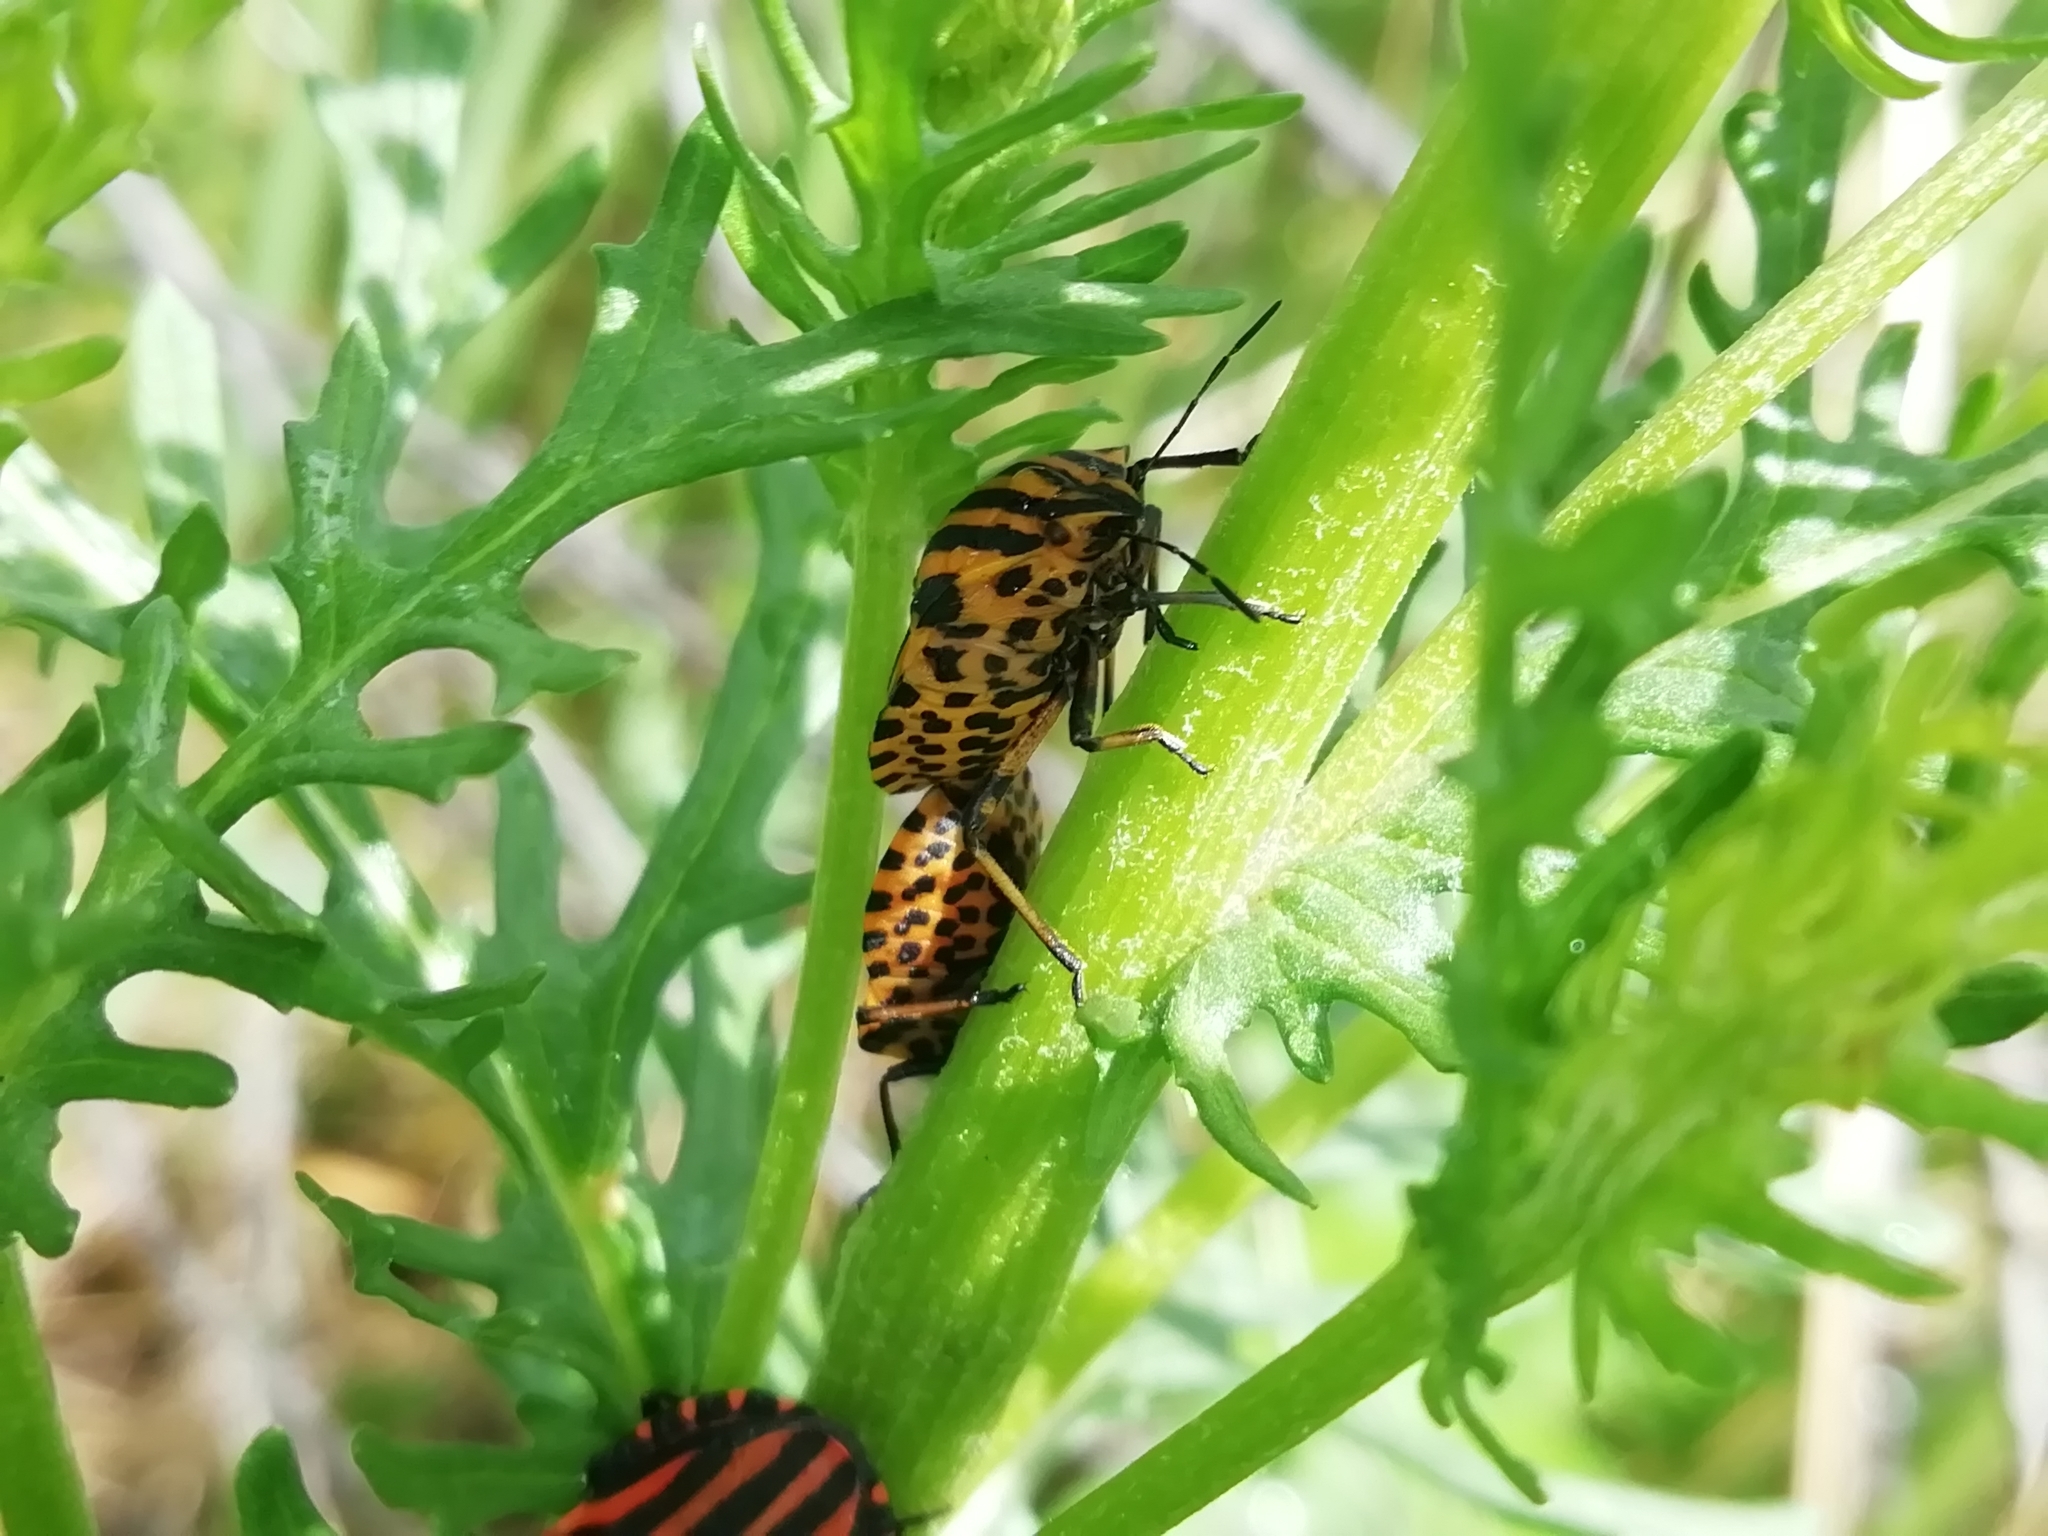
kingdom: Animalia
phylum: Arthropoda
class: Insecta
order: Hemiptera
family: Pentatomidae
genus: Graphosoma
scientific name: Graphosoma italicum
